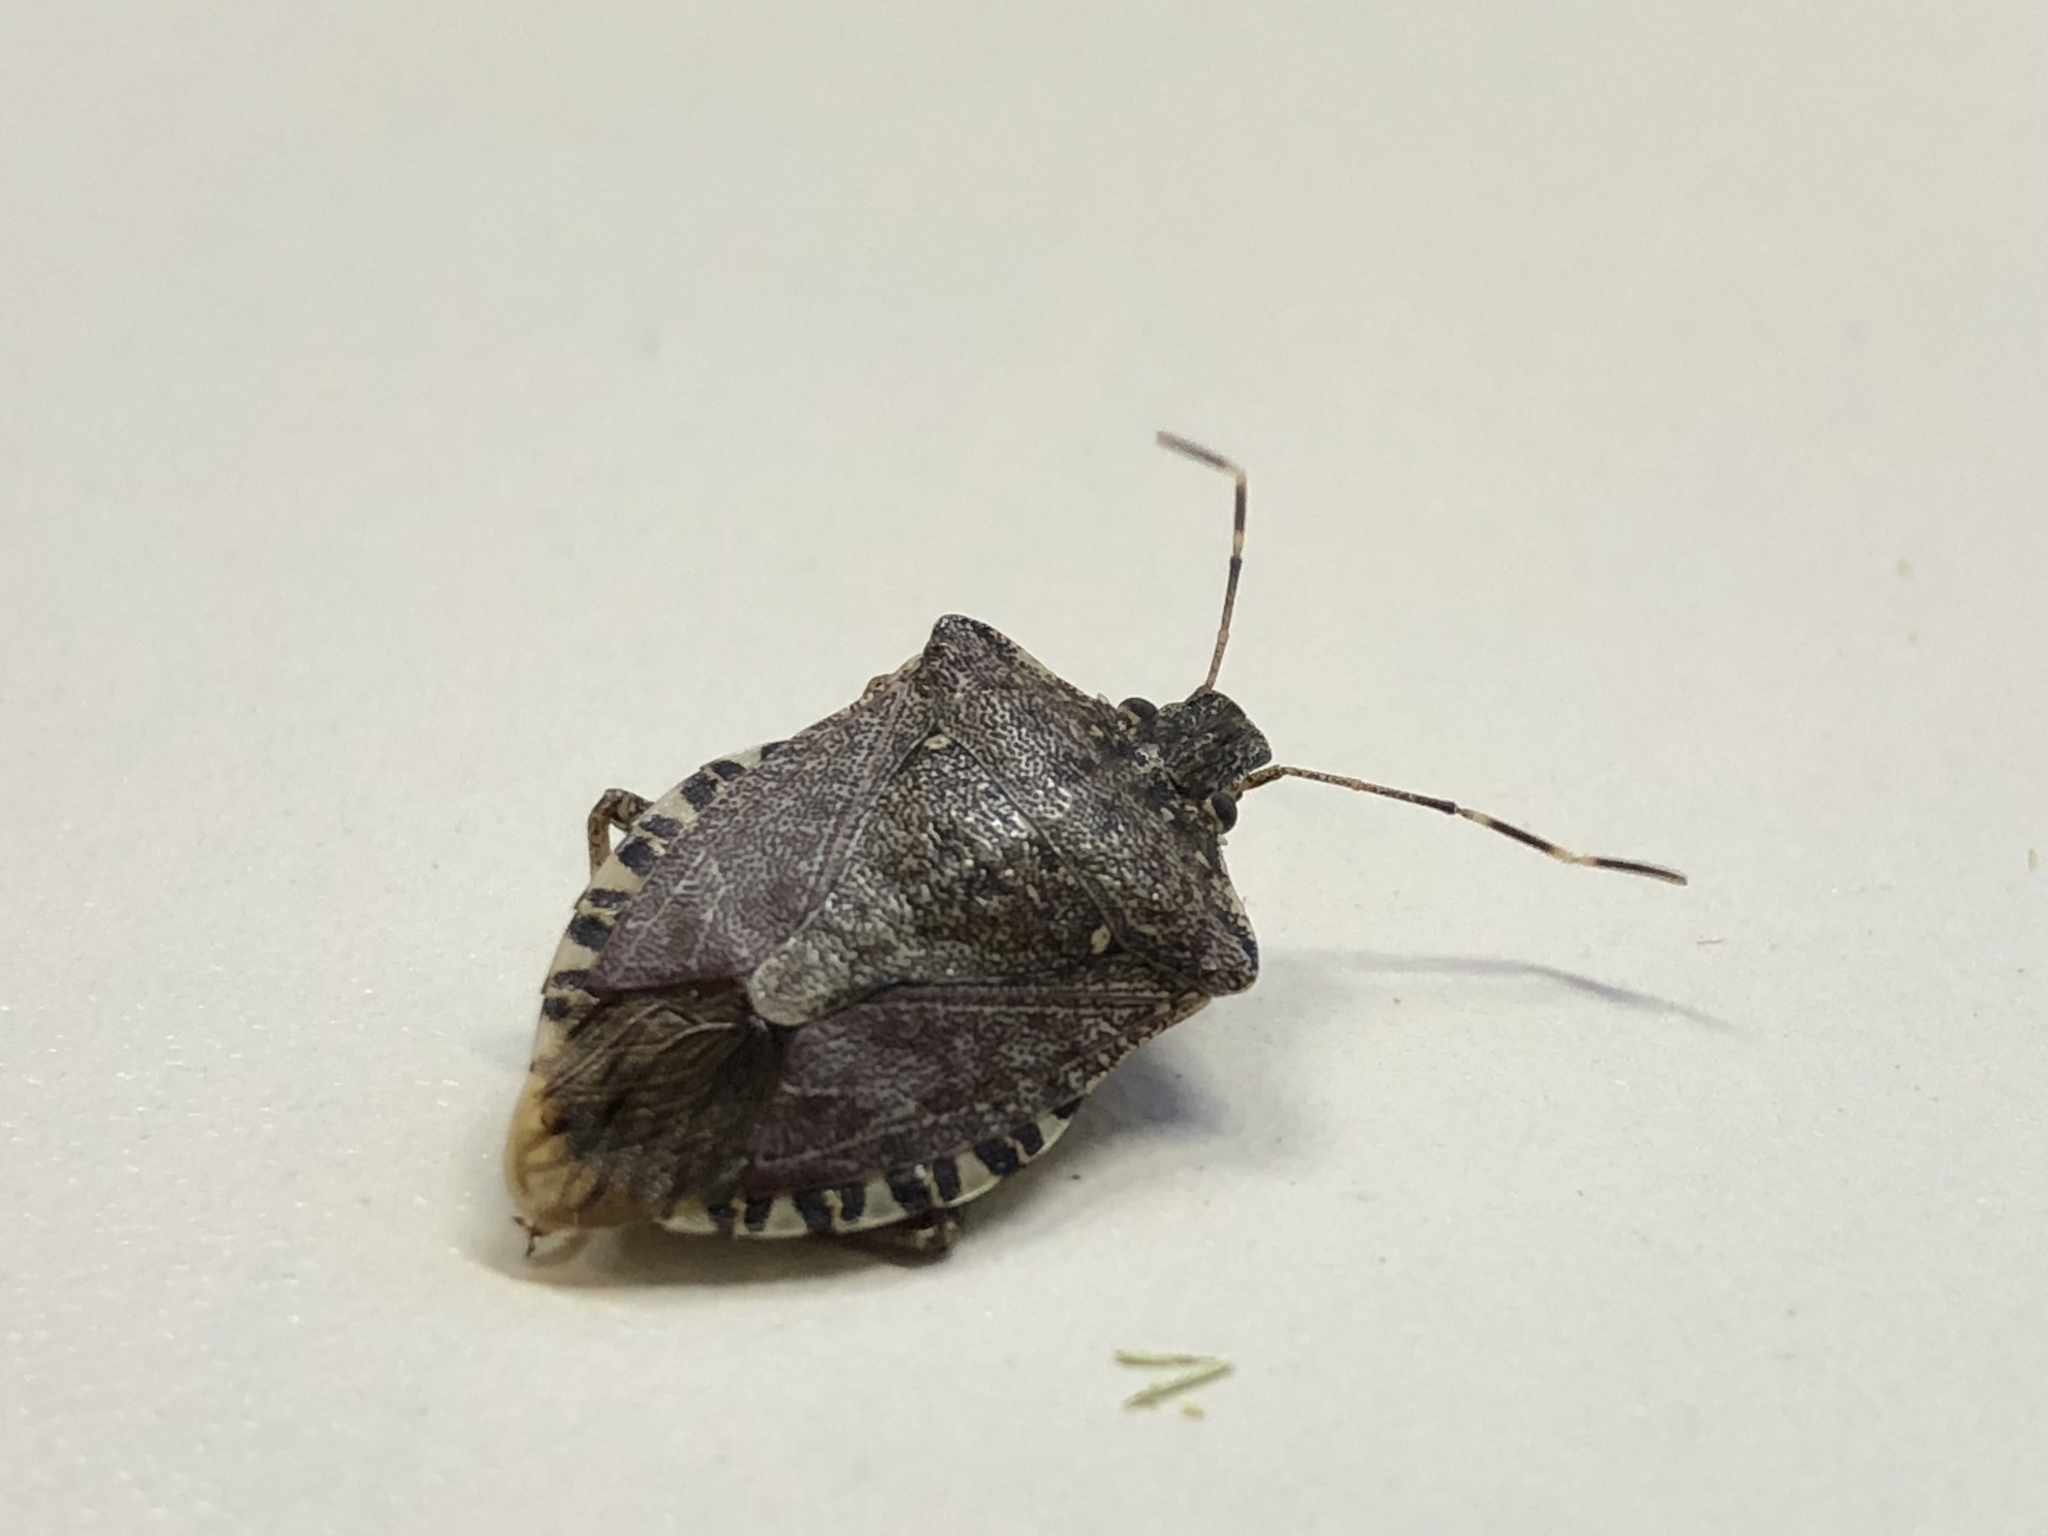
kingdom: Animalia
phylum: Arthropoda
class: Insecta
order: Hemiptera
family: Pentatomidae
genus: Halyomorpha
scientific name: Halyomorpha halys
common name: Brown marmorated stink bug
